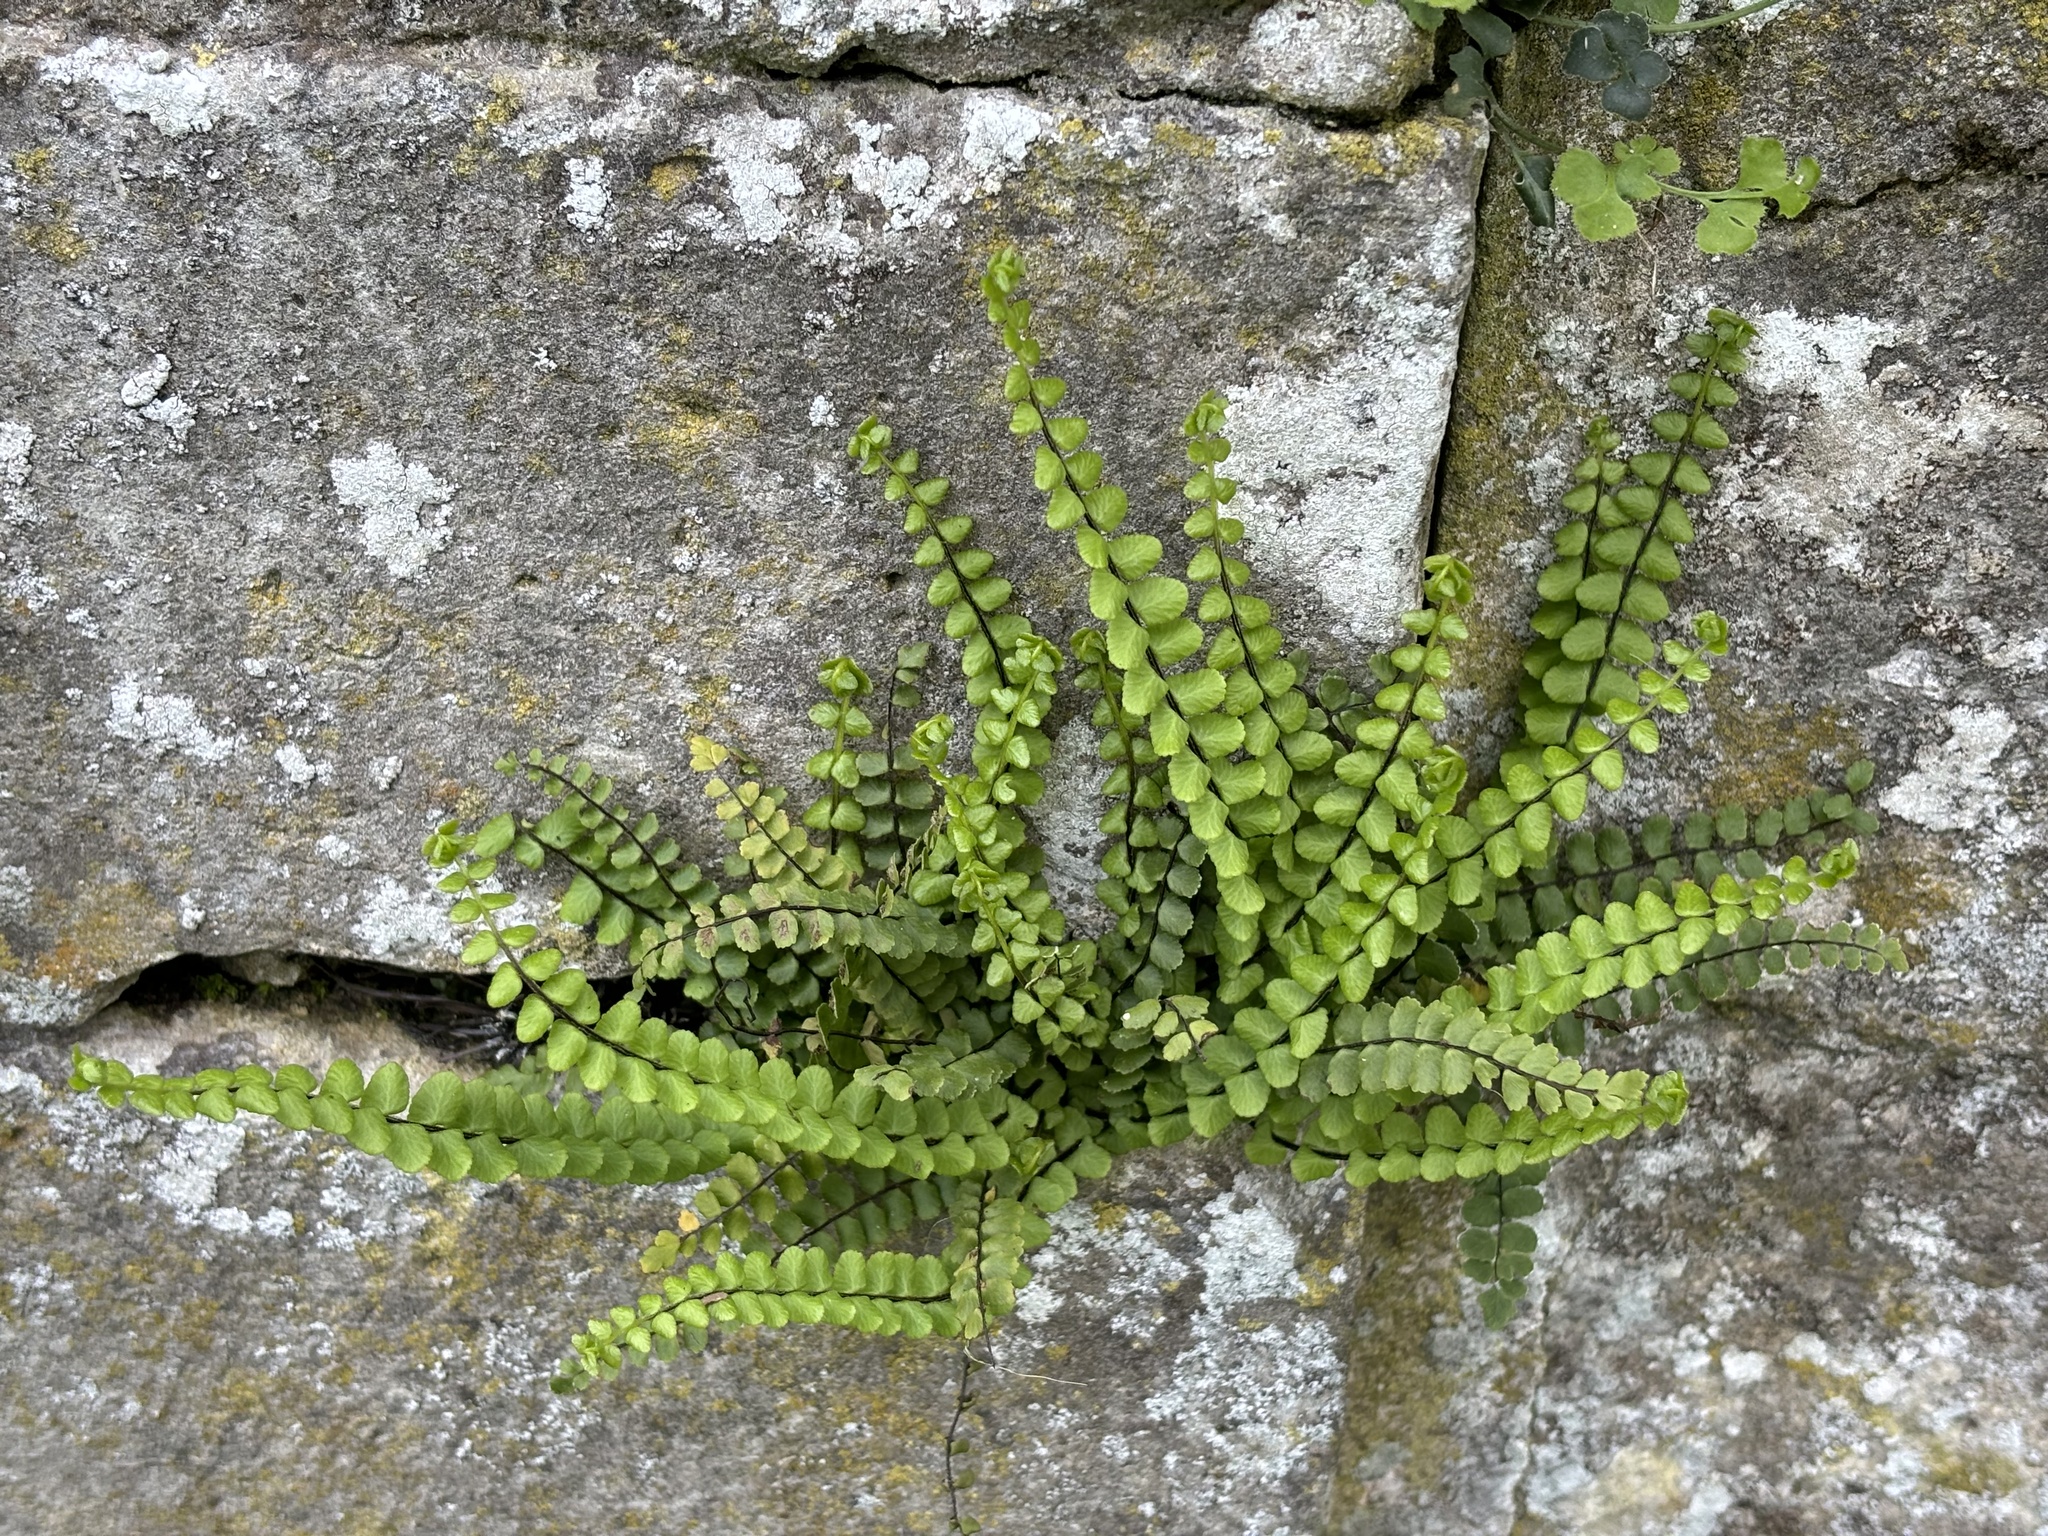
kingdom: Plantae
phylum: Tracheophyta
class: Polypodiopsida
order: Polypodiales
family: Aspleniaceae
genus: Asplenium
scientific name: Asplenium trichomanes
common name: Maidenhair spleenwort
